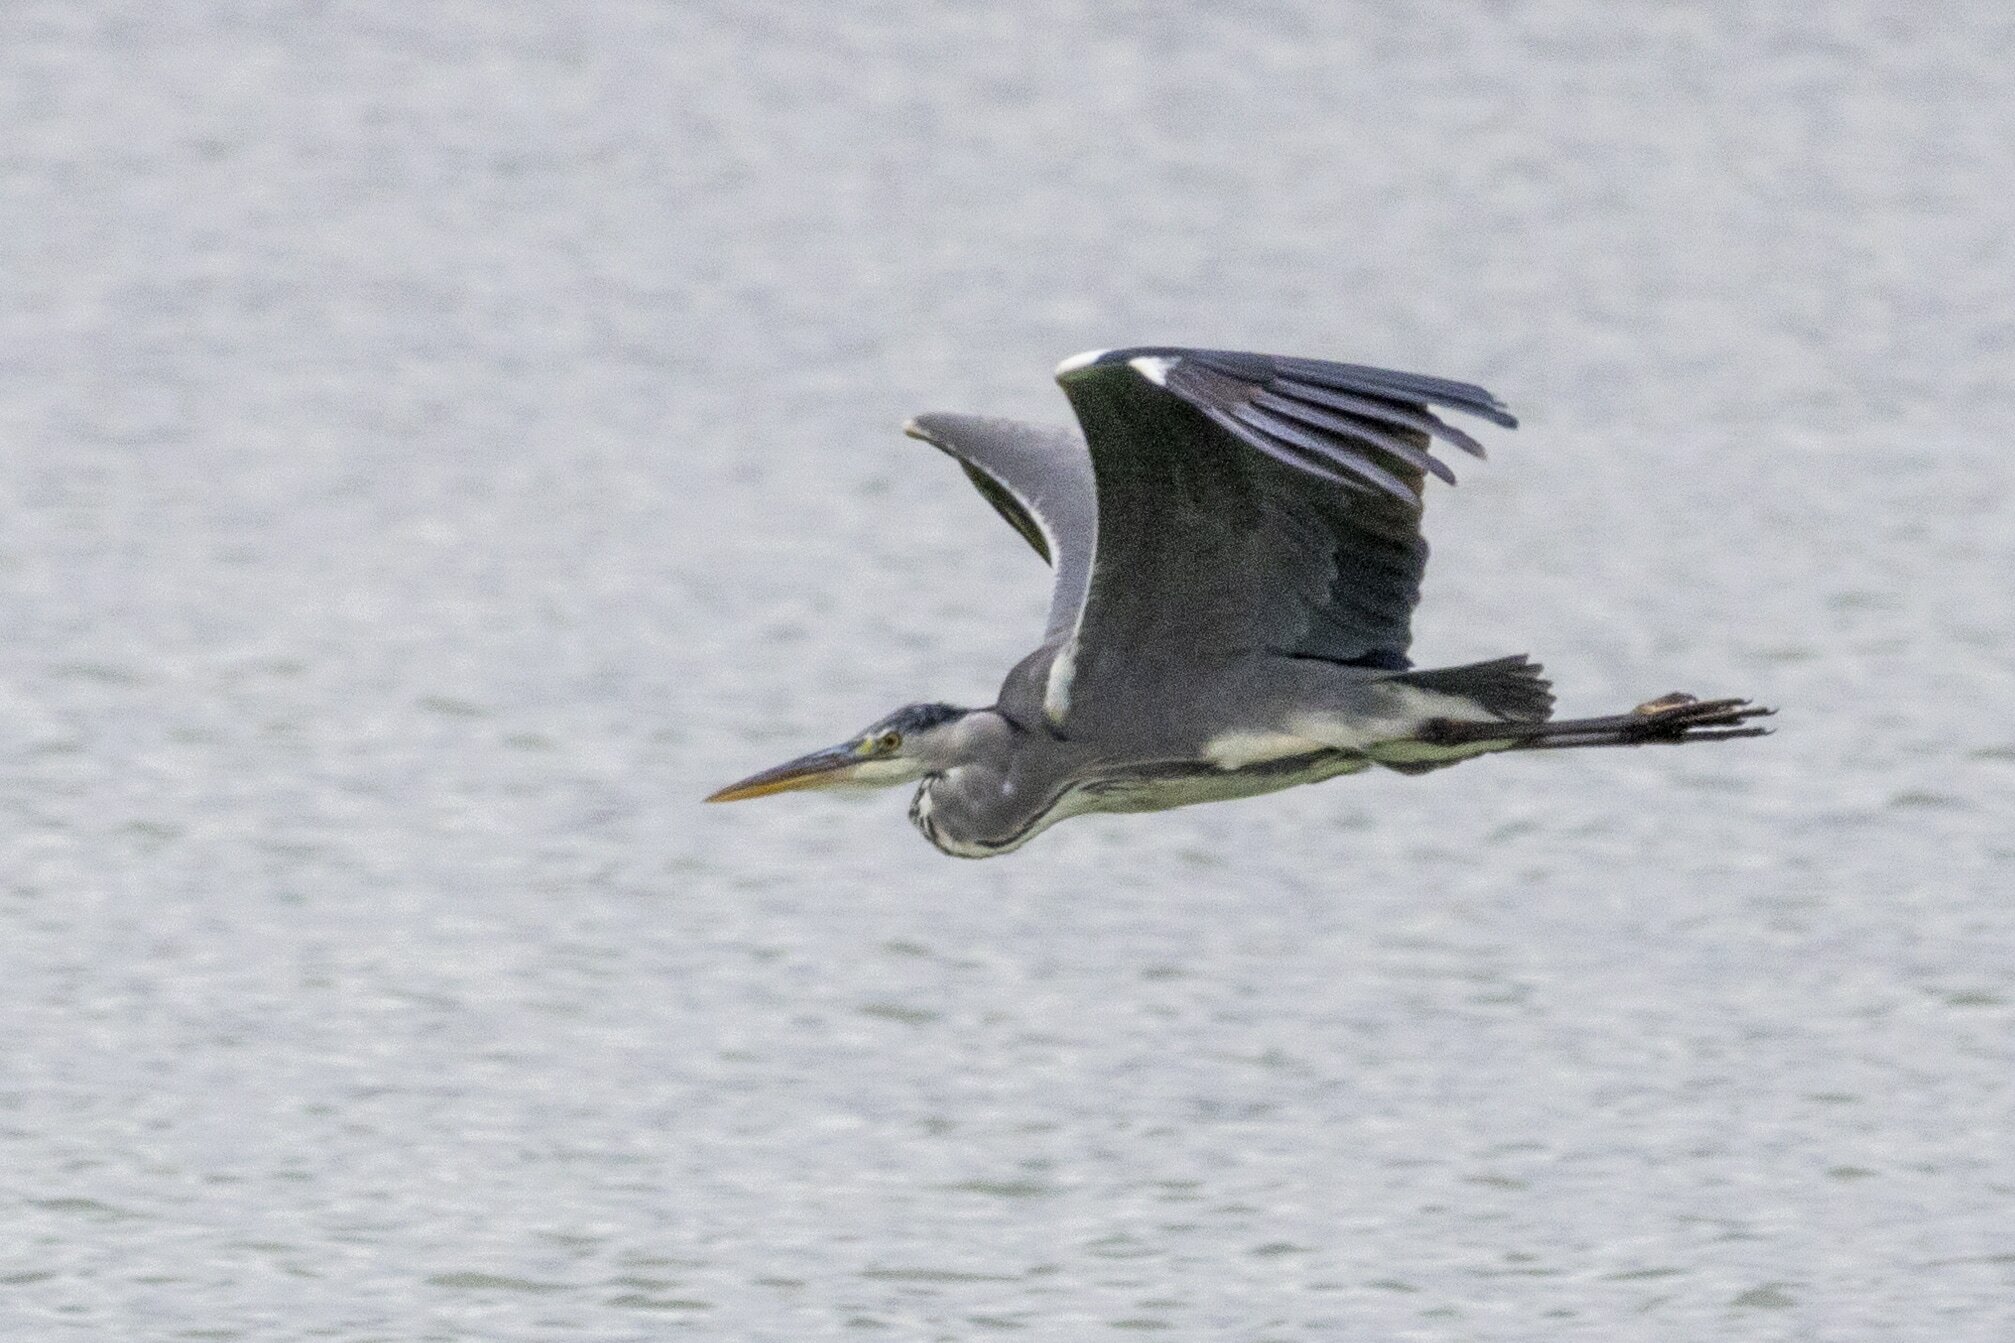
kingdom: Animalia
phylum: Chordata
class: Aves
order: Pelecaniformes
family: Ardeidae
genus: Ardea
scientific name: Ardea cinerea
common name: Grey heron
